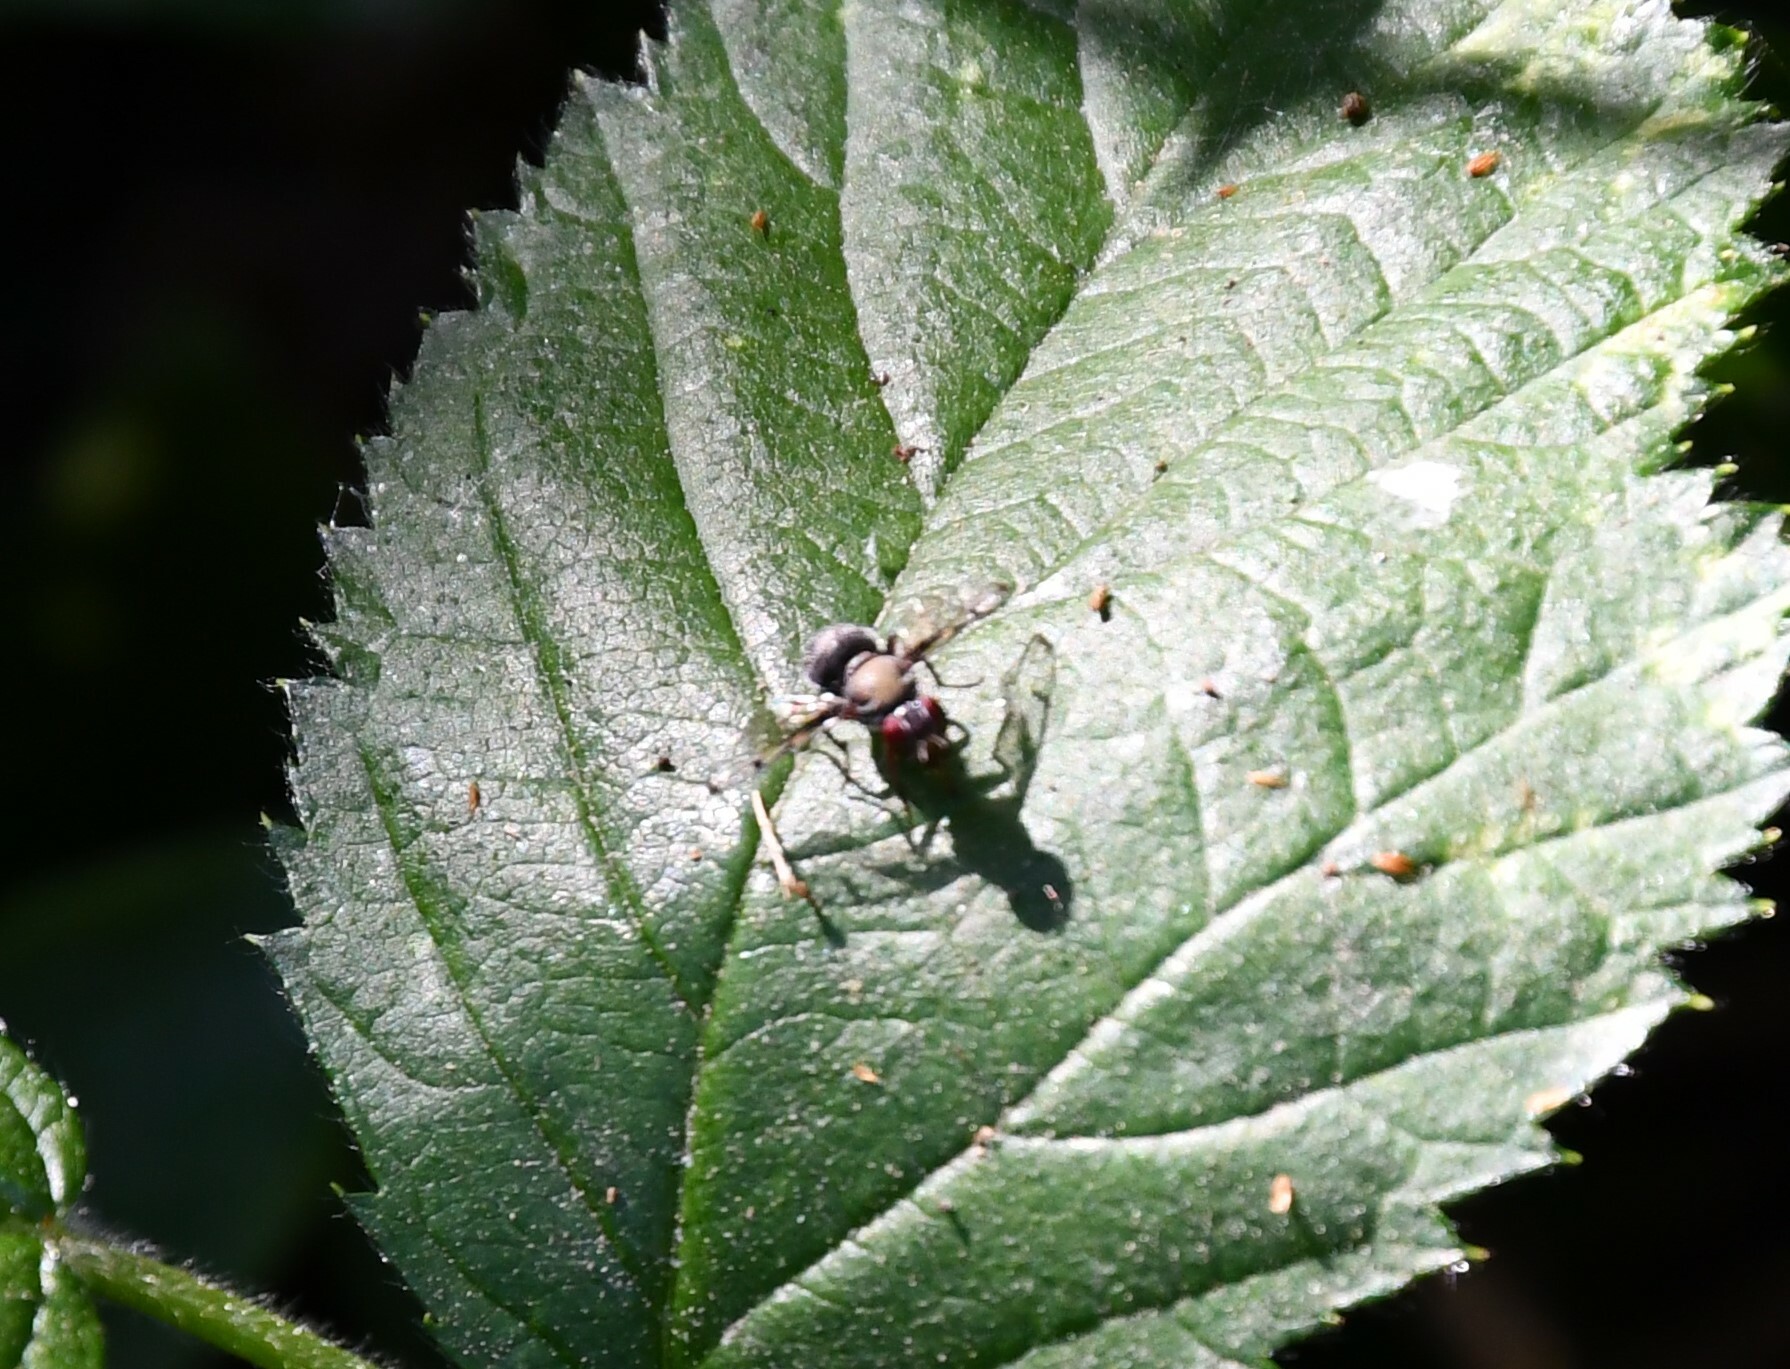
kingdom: Animalia
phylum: Arthropoda
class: Insecta
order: Diptera
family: Platystomatidae
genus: Pogonortalis
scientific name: Pogonortalis doclea
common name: Boatman fly
